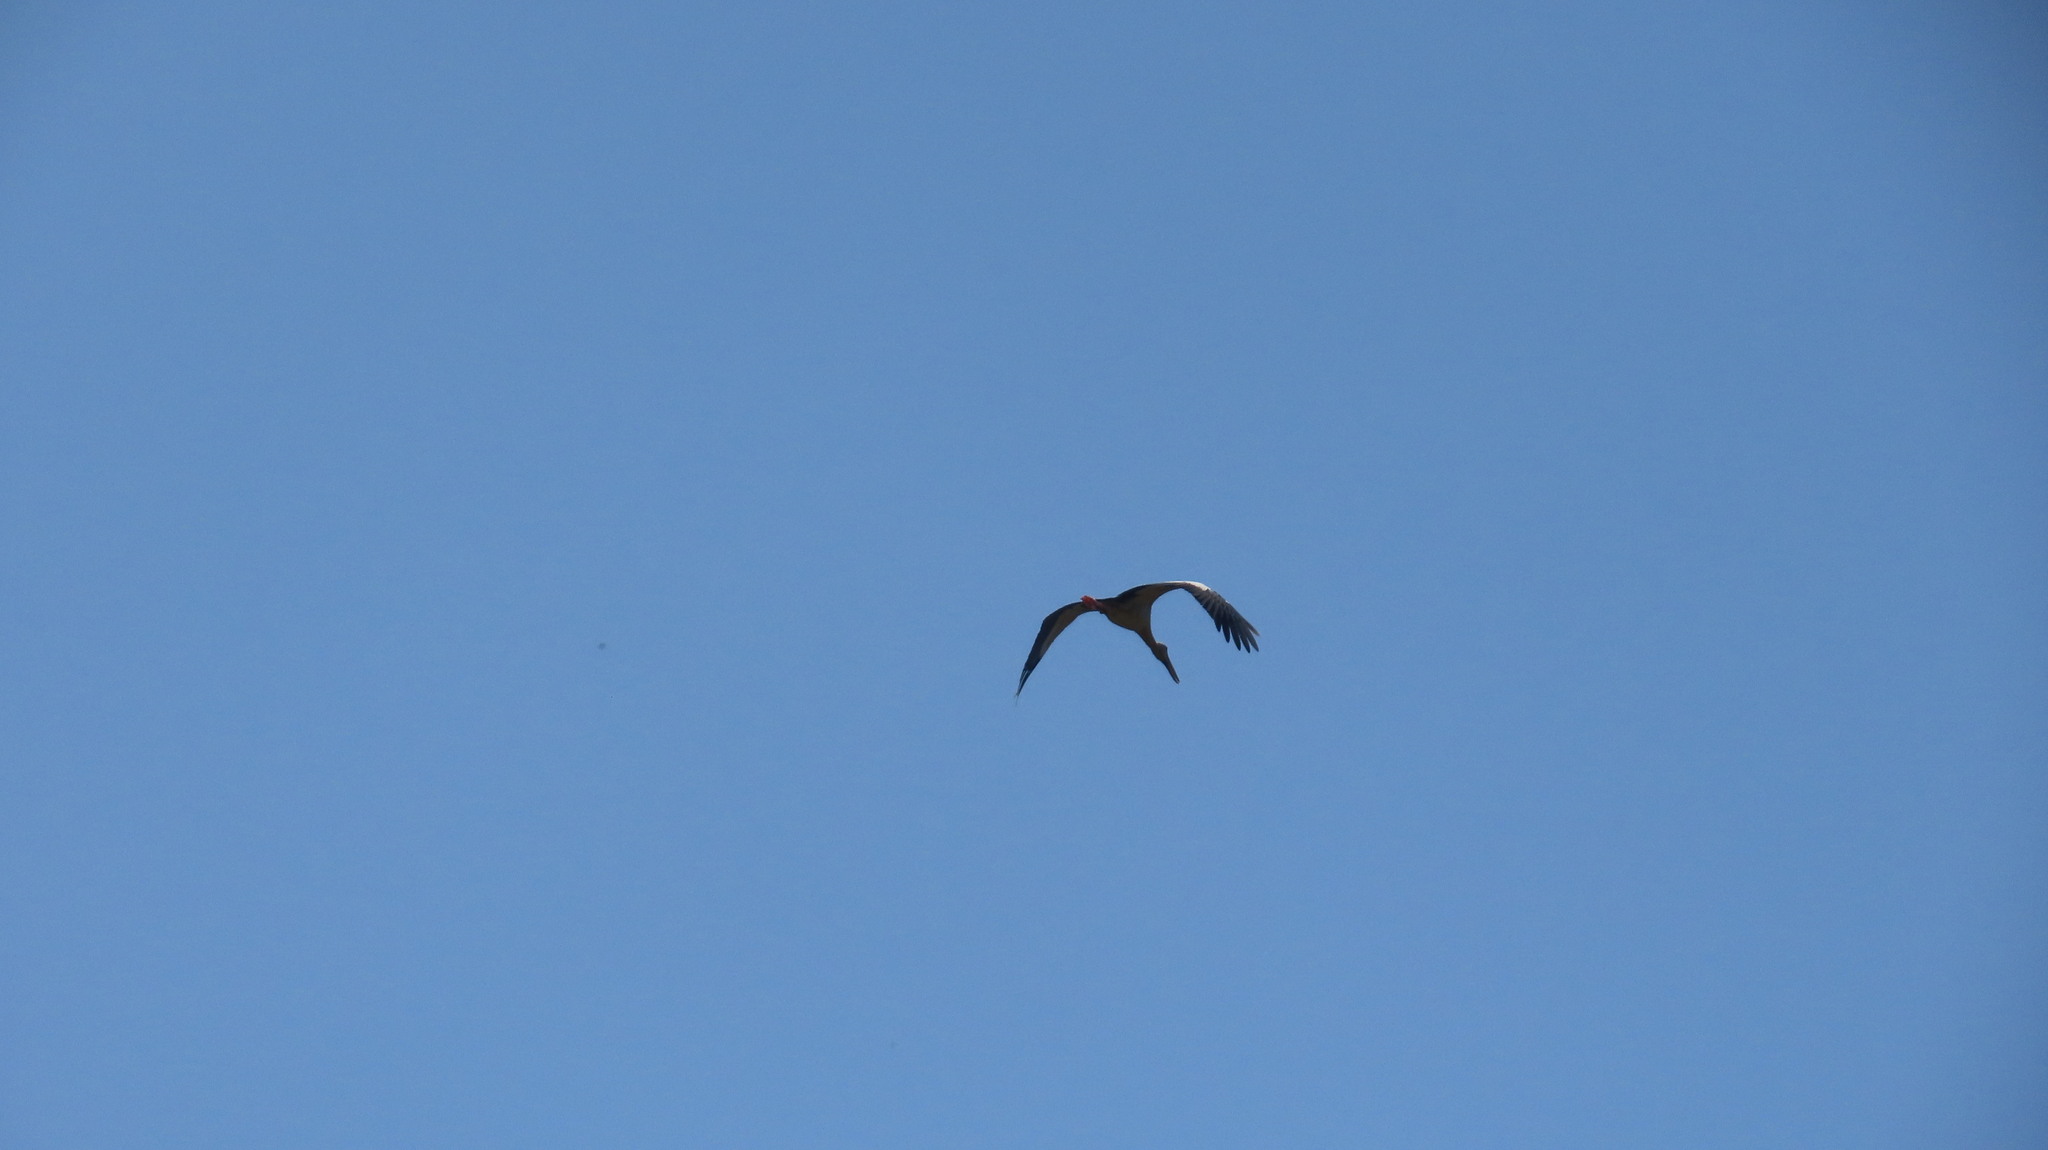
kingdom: Animalia
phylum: Chordata
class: Aves
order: Ciconiiformes
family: Ciconiidae
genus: Anastomus
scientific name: Anastomus oscitans
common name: Asian openbill
